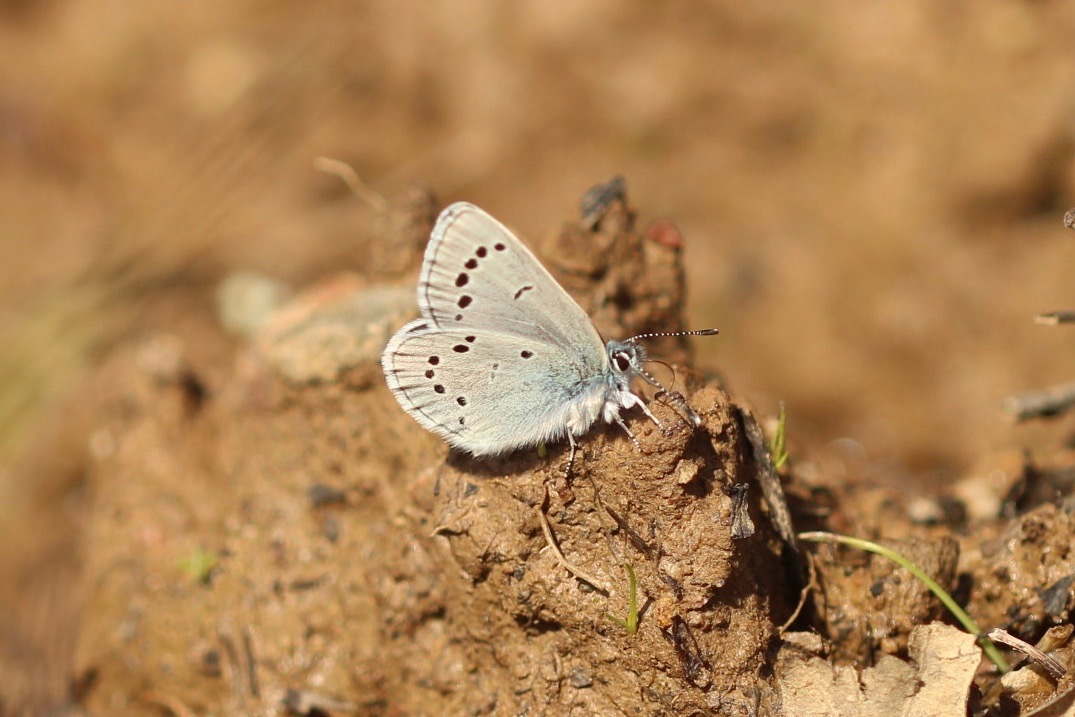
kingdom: Animalia
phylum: Arthropoda
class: Insecta
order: Lepidoptera
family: Lycaenidae
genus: Glaucopsyche
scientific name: Glaucopsyche lygdamus
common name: Silvery blue
